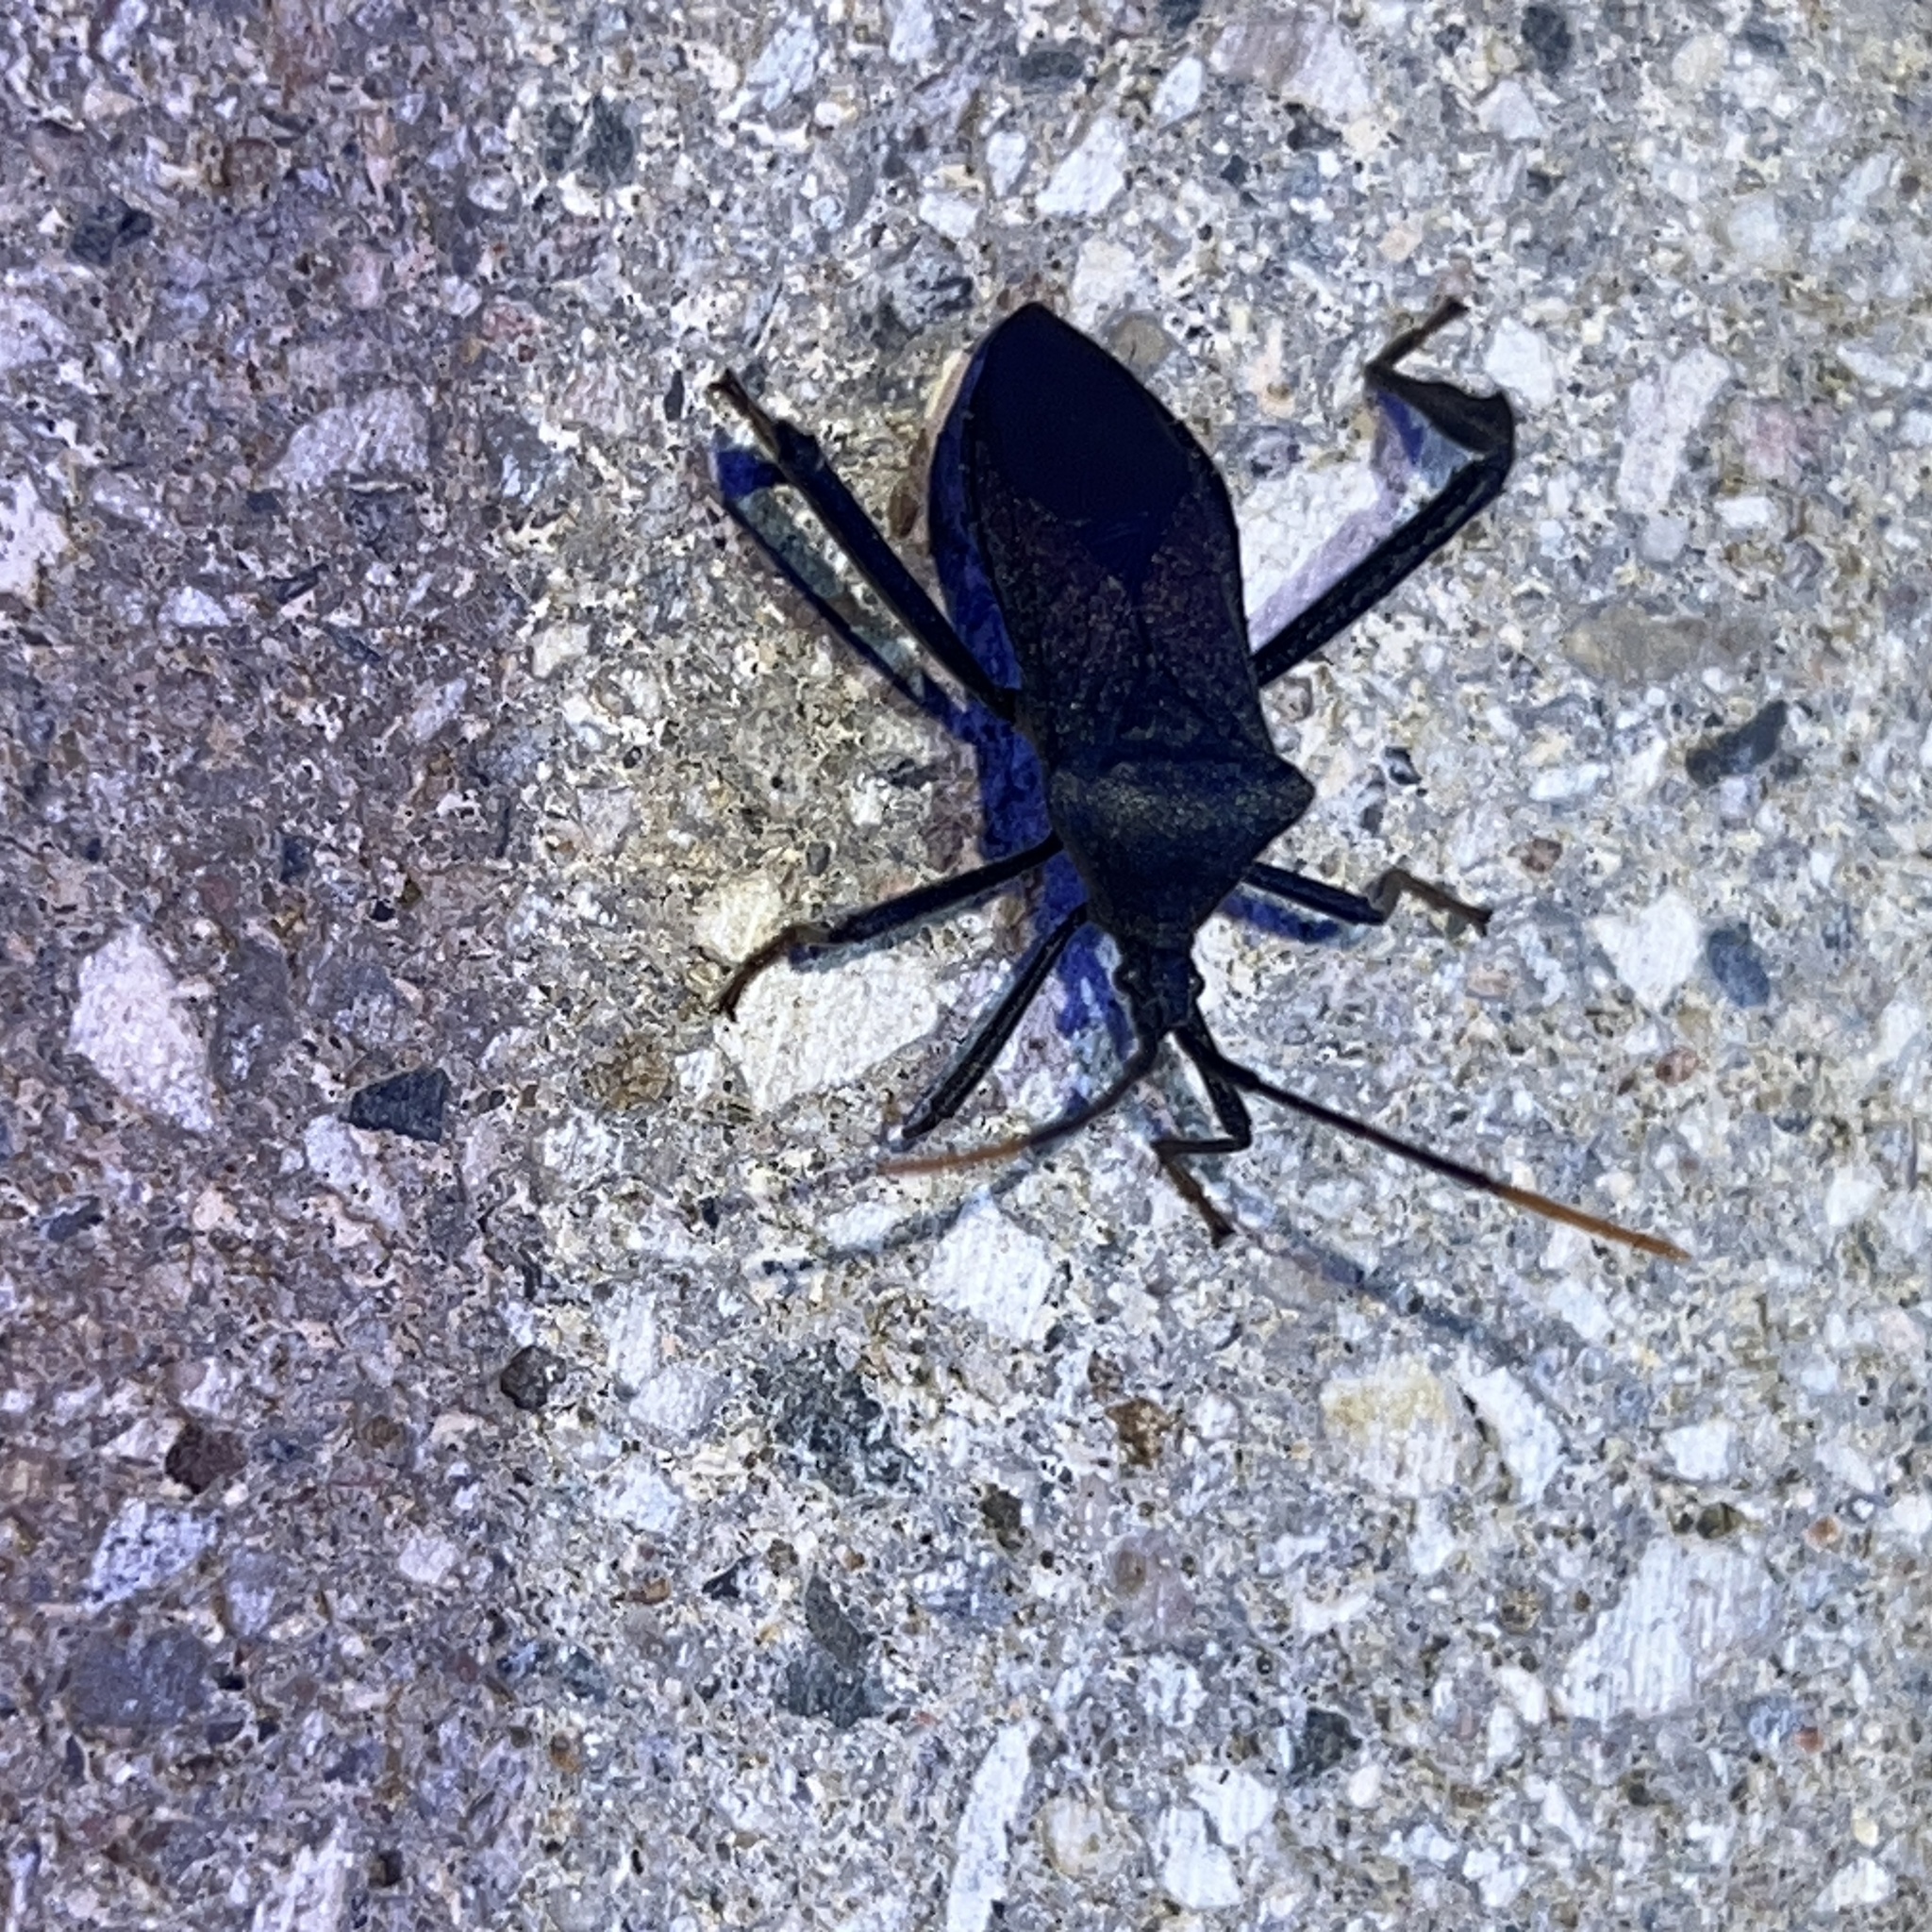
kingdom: Animalia
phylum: Arthropoda
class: Insecta
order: Hemiptera
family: Coreidae
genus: Acanthocephala
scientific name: Acanthocephala terminalis
